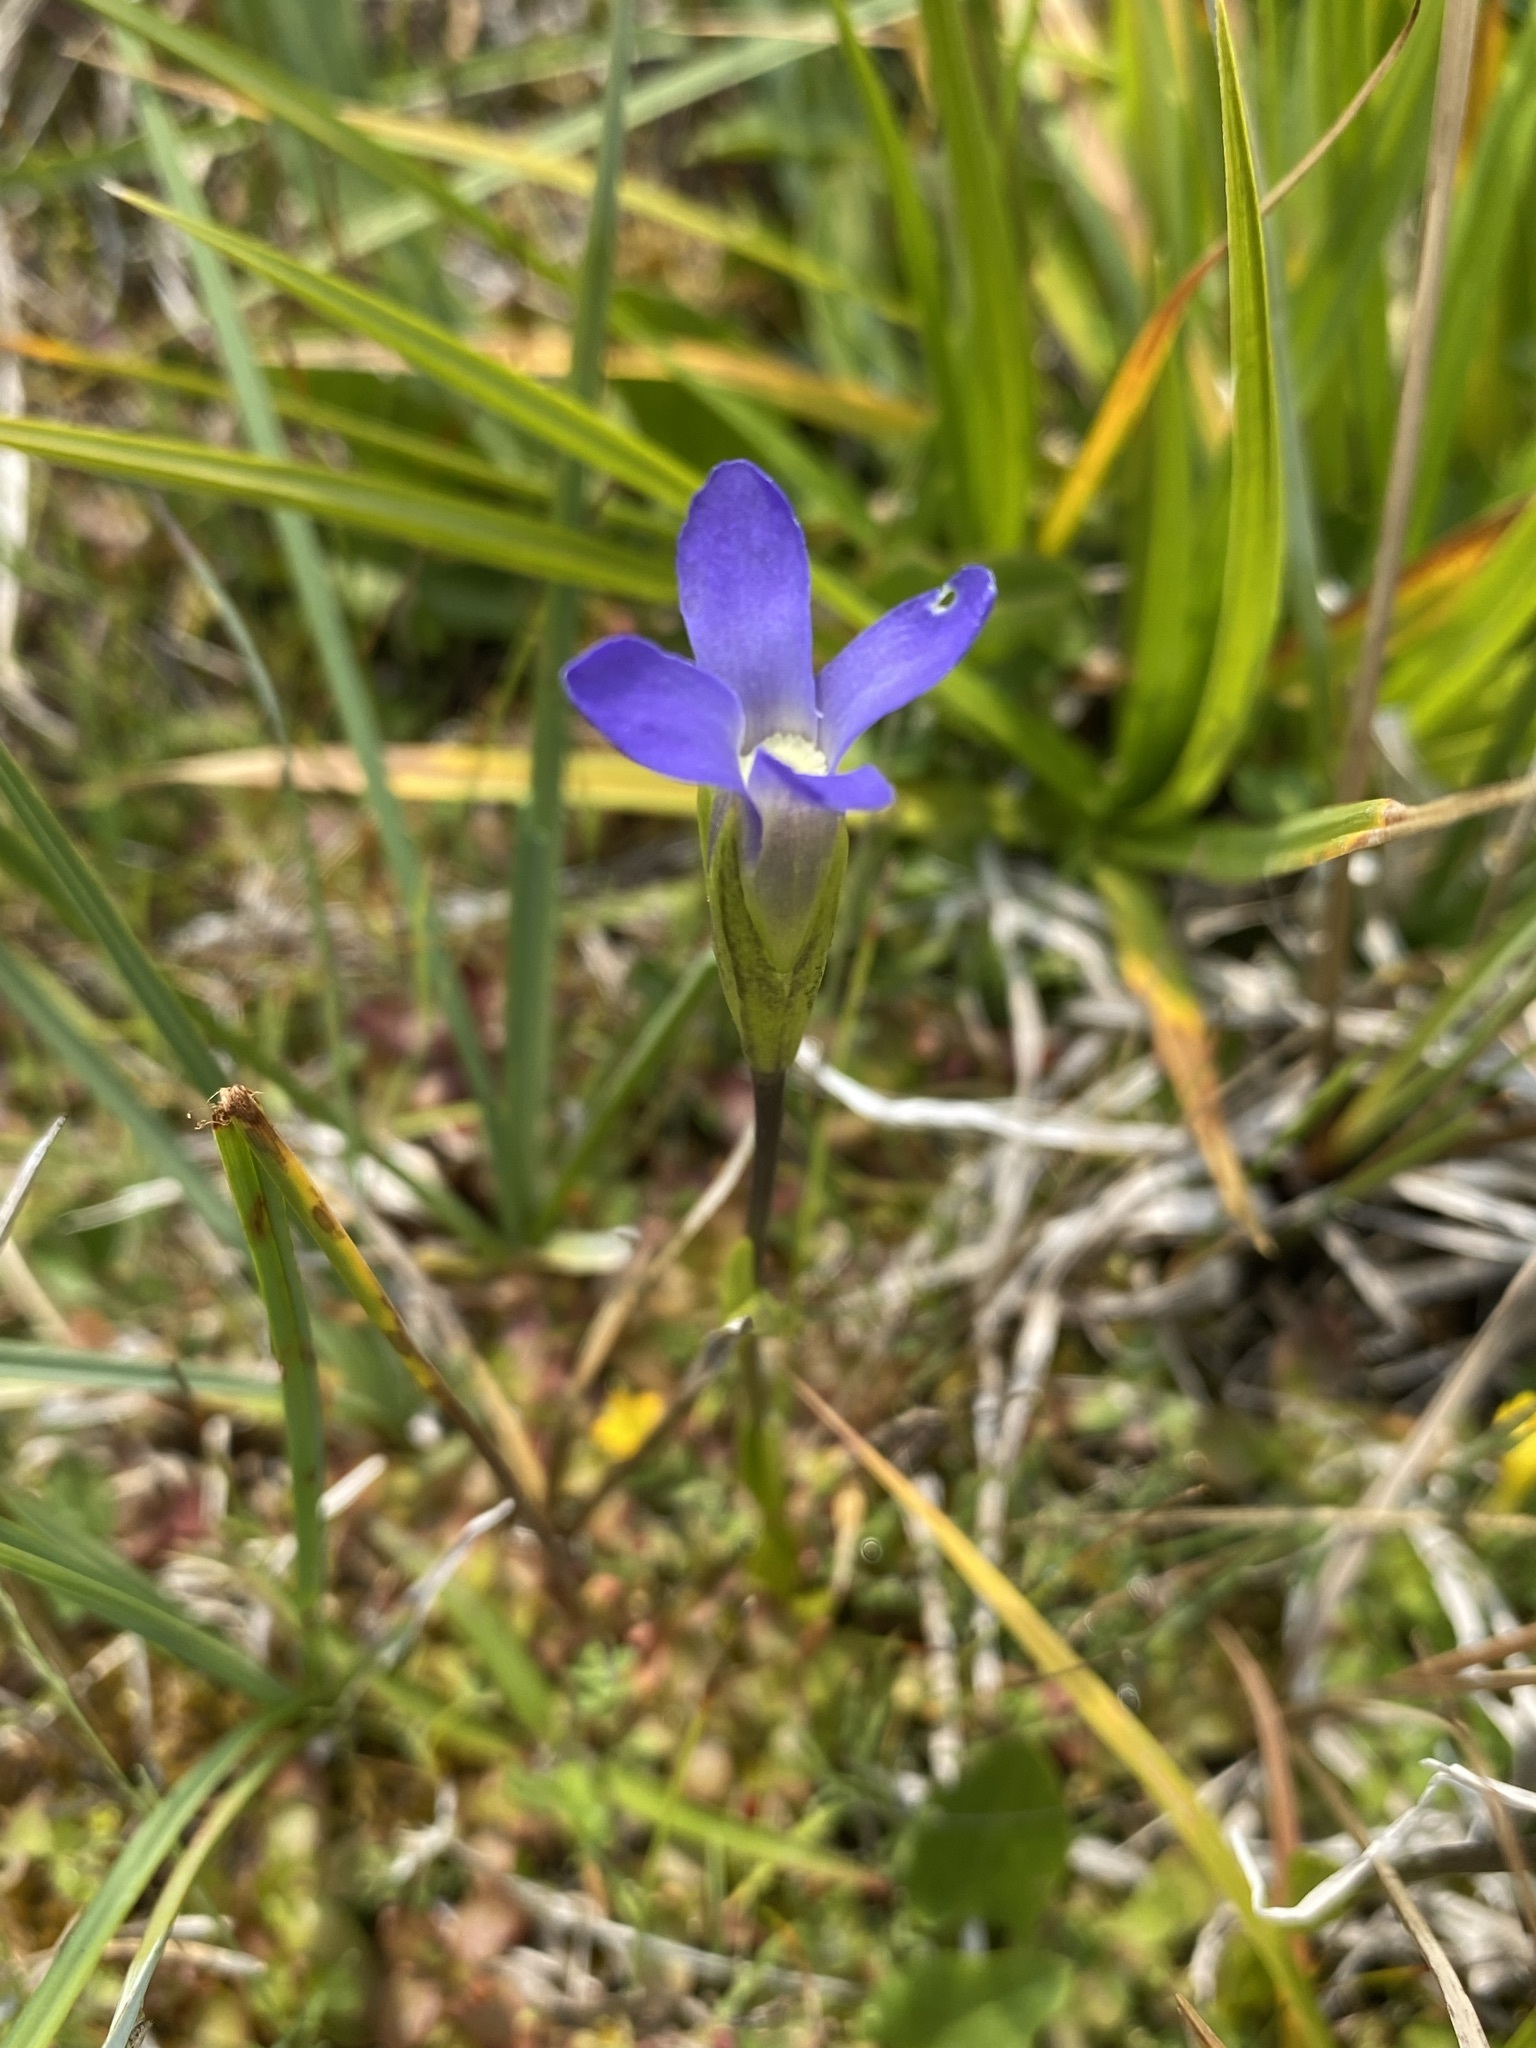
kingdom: Plantae
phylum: Tracheophyta
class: Magnoliopsida
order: Gentianales
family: Gentianaceae
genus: Gentianopsis
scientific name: Gentianopsis simplex
